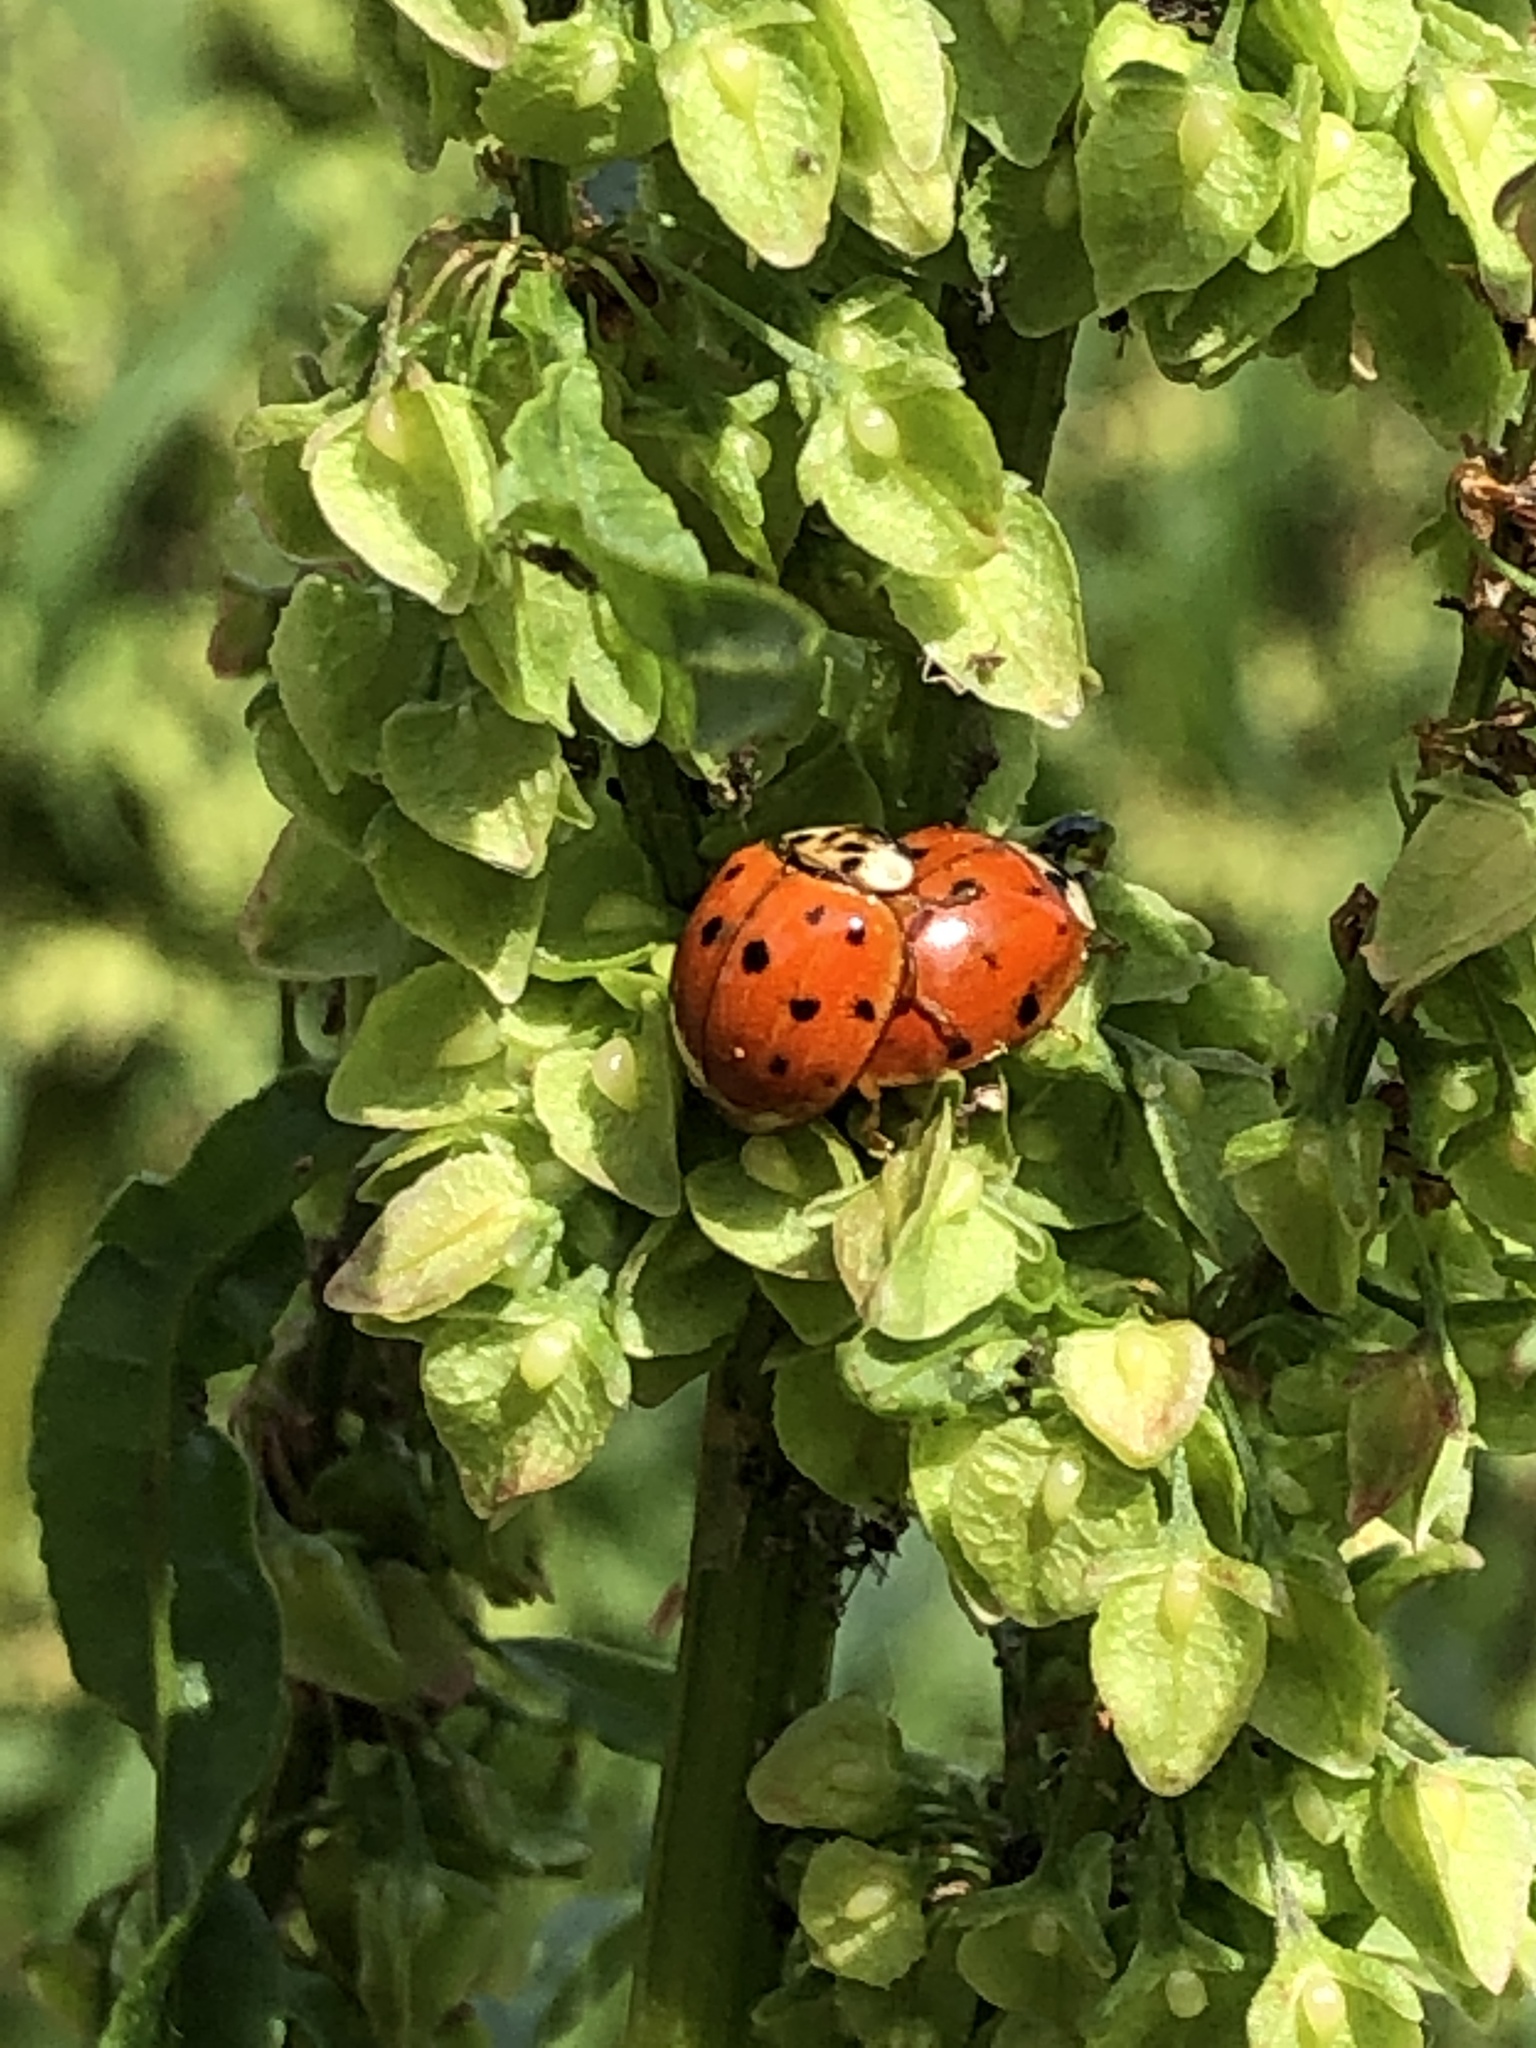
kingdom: Animalia
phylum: Arthropoda
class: Insecta
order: Coleoptera
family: Coccinellidae
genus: Harmonia
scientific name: Harmonia axyridis
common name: Harlequin ladybird
